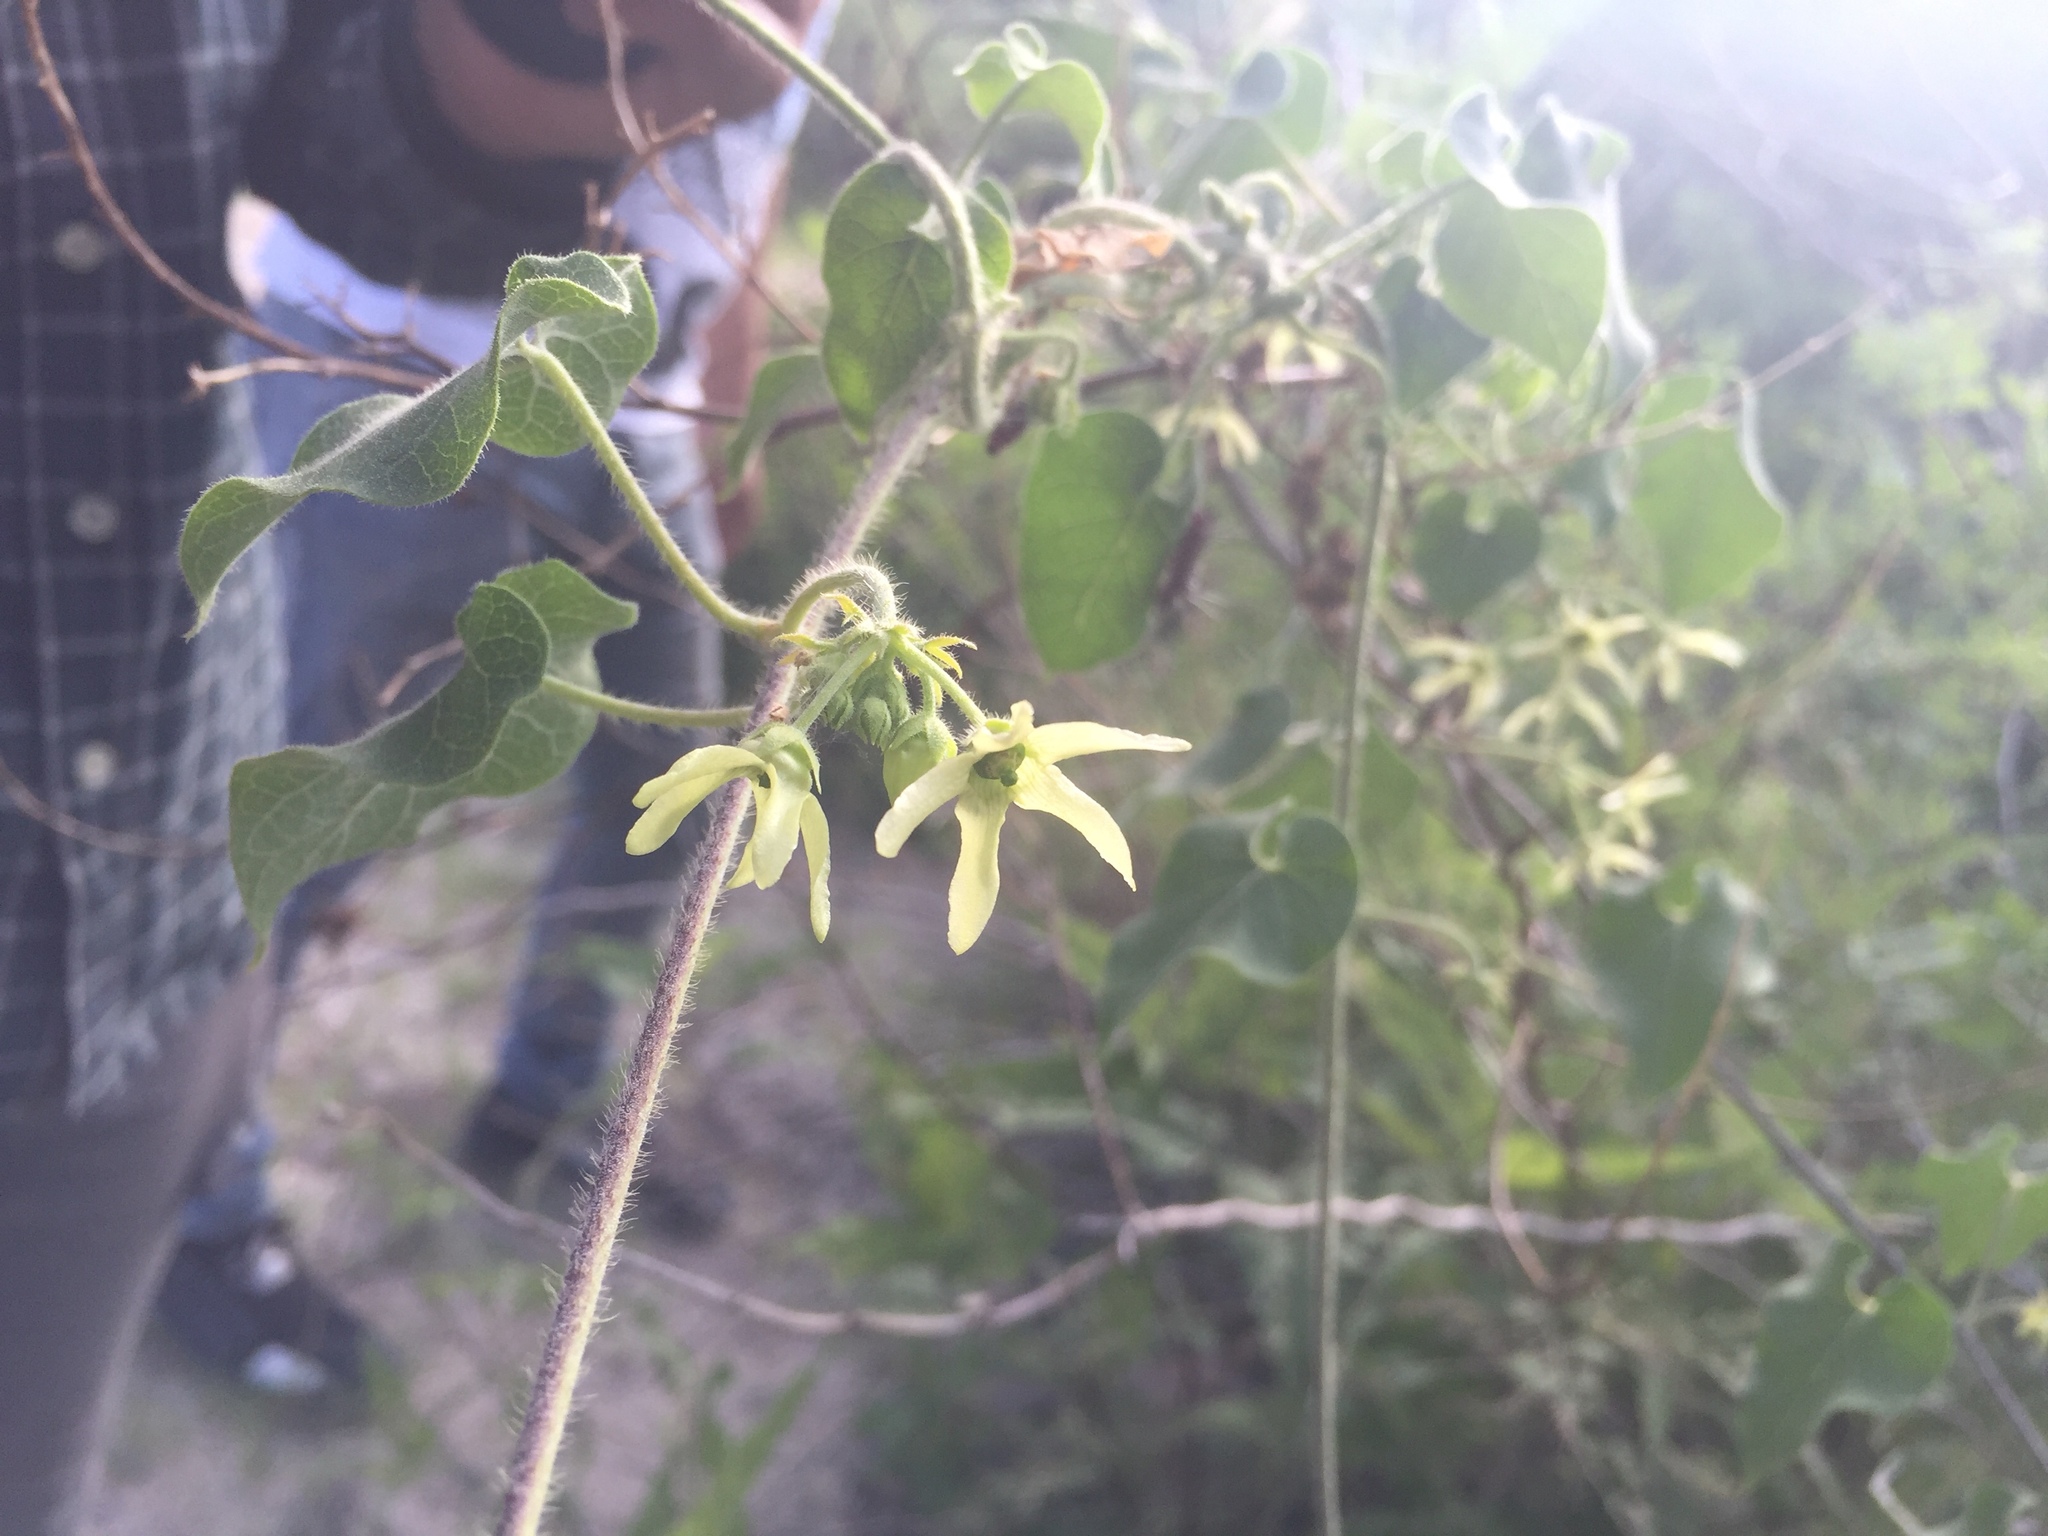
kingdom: Plantae
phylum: Tracheophyta
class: Magnoliopsida
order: Gentianales
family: Apocynaceae
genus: Polystemma
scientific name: Polystemma cordifolium
